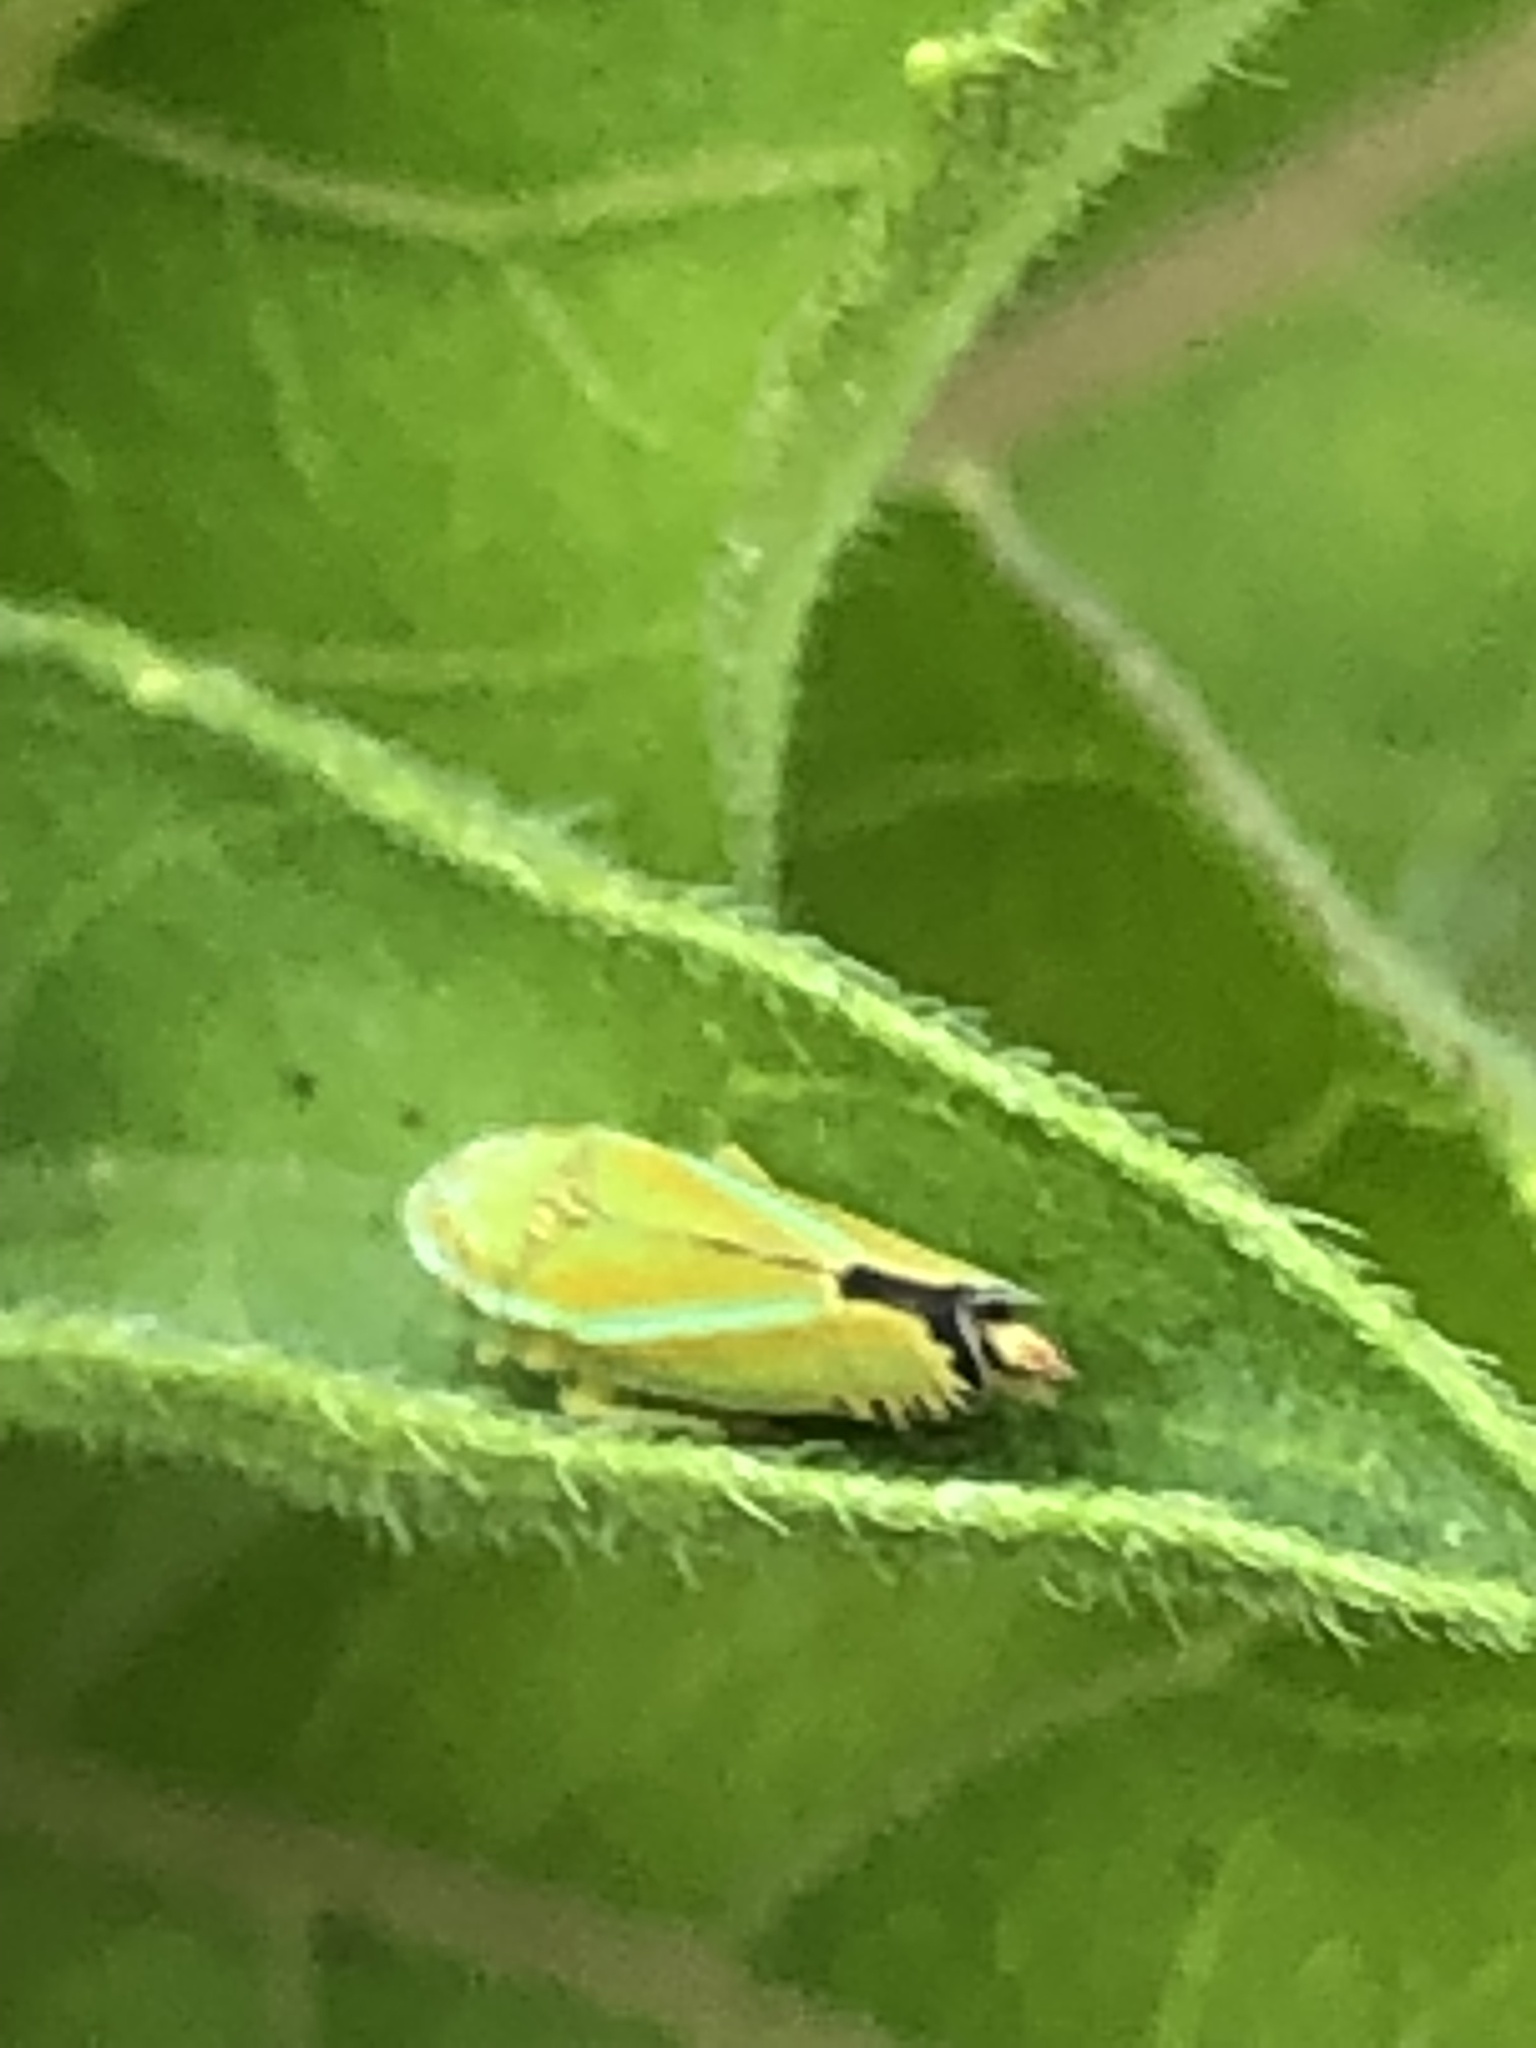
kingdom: Animalia
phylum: Arthropoda
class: Insecta
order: Hemiptera
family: Cicadellidae
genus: Graphocephala
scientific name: Graphocephala versuta
